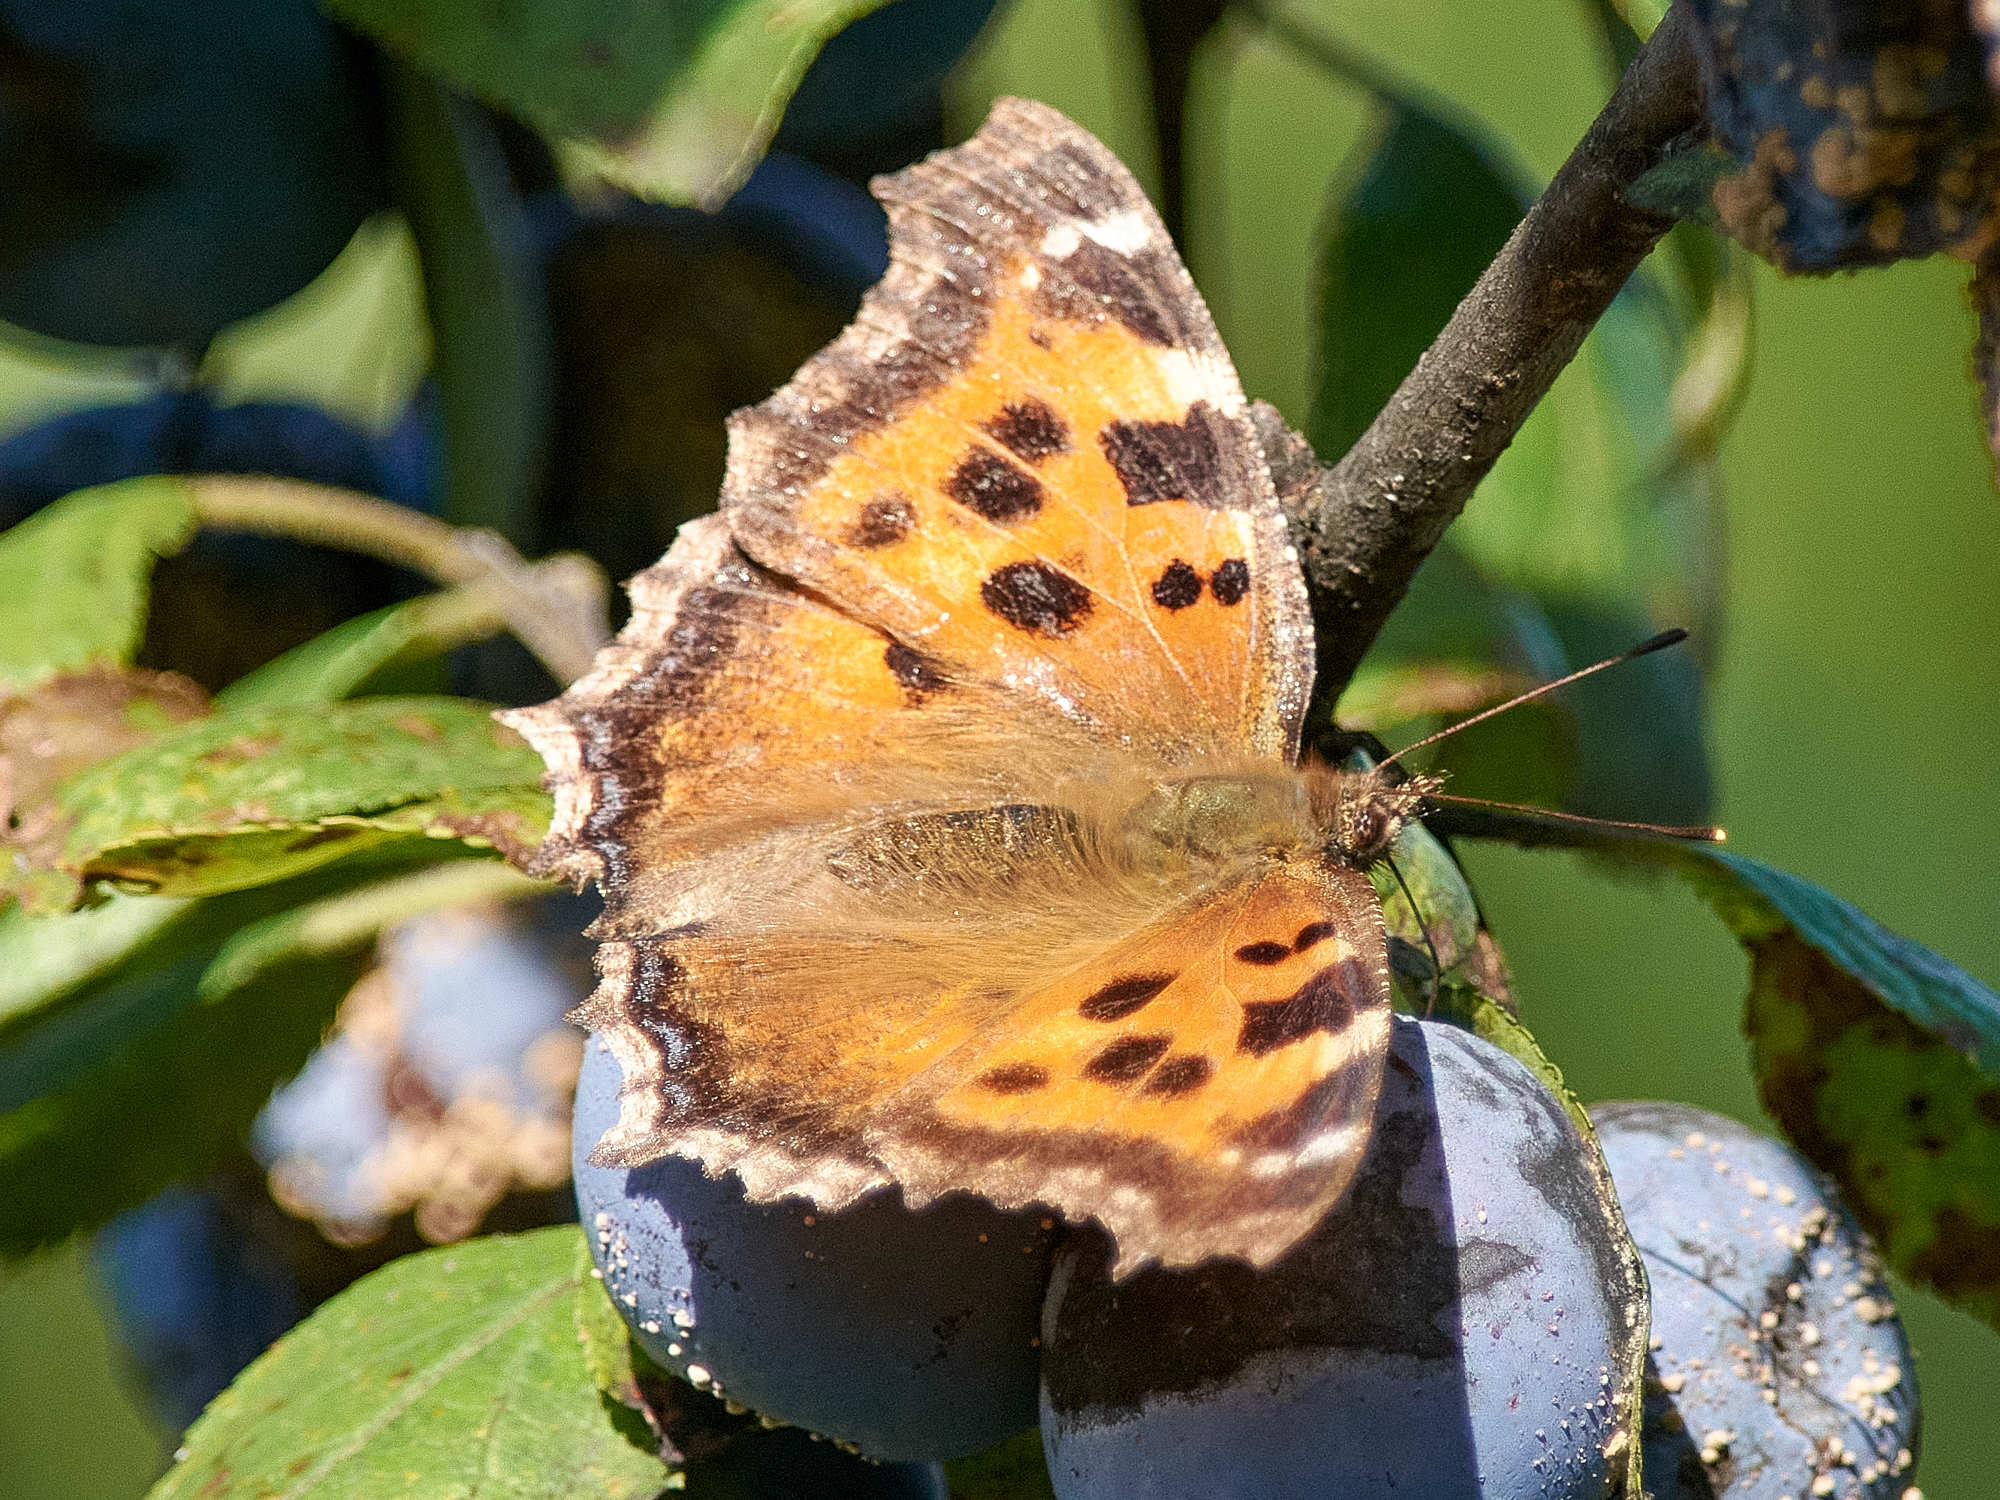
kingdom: Animalia
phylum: Arthropoda
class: Insecta
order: Lepidoptera
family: Nymphalidae
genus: Nymphalis
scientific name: Nymphalis xanthomelas
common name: Scarce tortoiseshell
